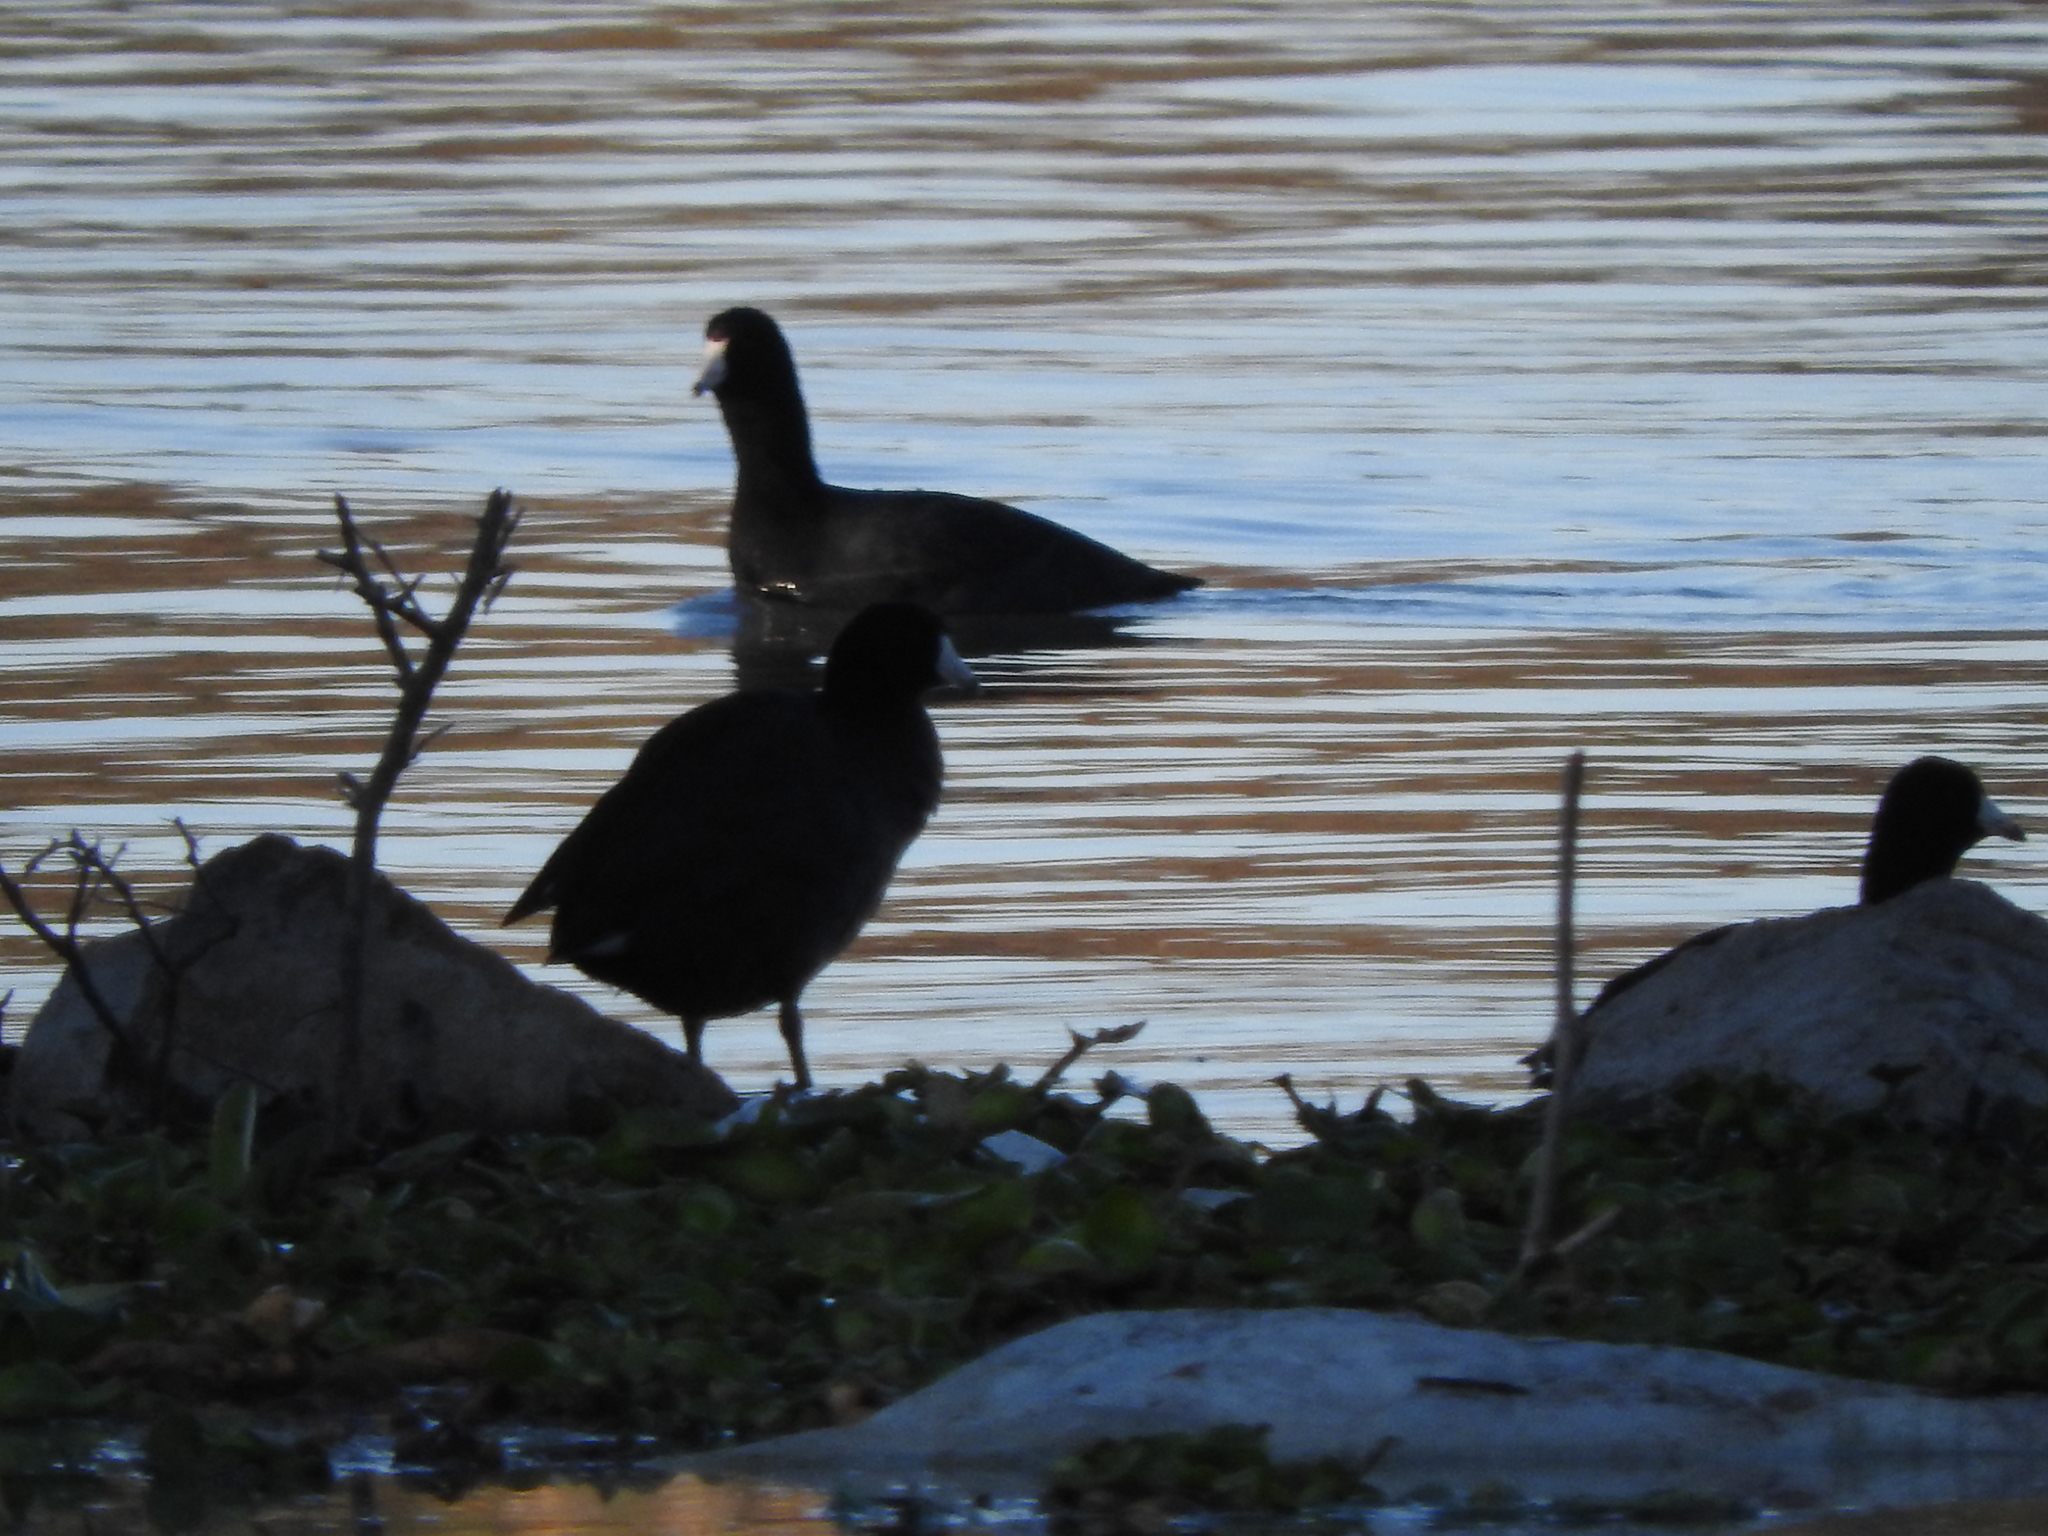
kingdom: Animalia
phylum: Chordata
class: Aves
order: Gruiformes
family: Rallidae
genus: Fulica
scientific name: Fulica americana
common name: American coot
